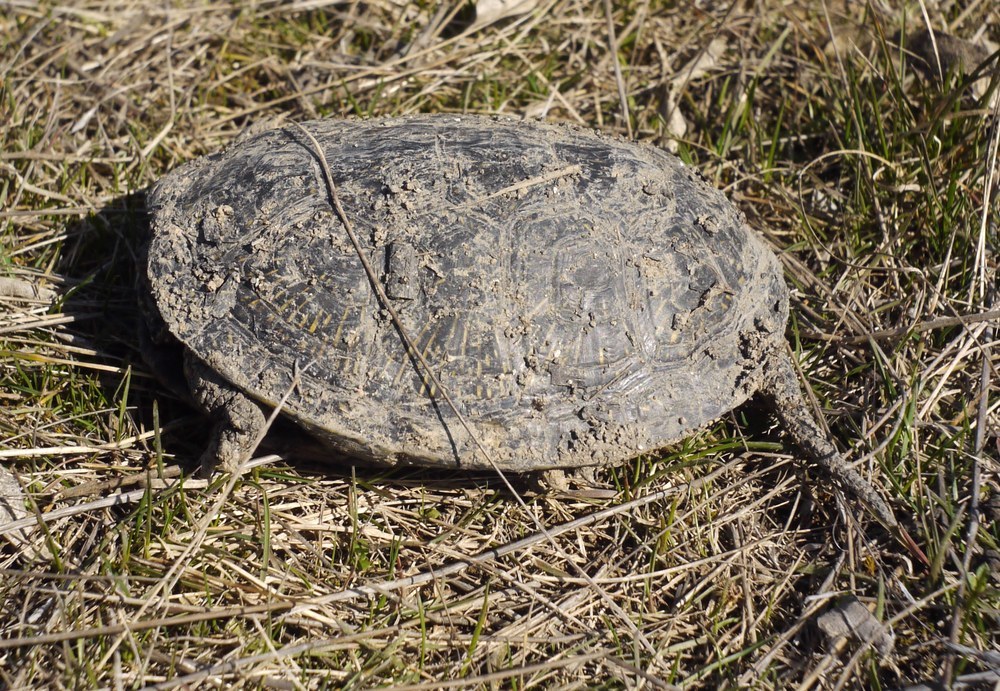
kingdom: Animalia
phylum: Chordata
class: Testudines
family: Emydidae
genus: Emys
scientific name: Emys orbicularis
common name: European pond turtle
